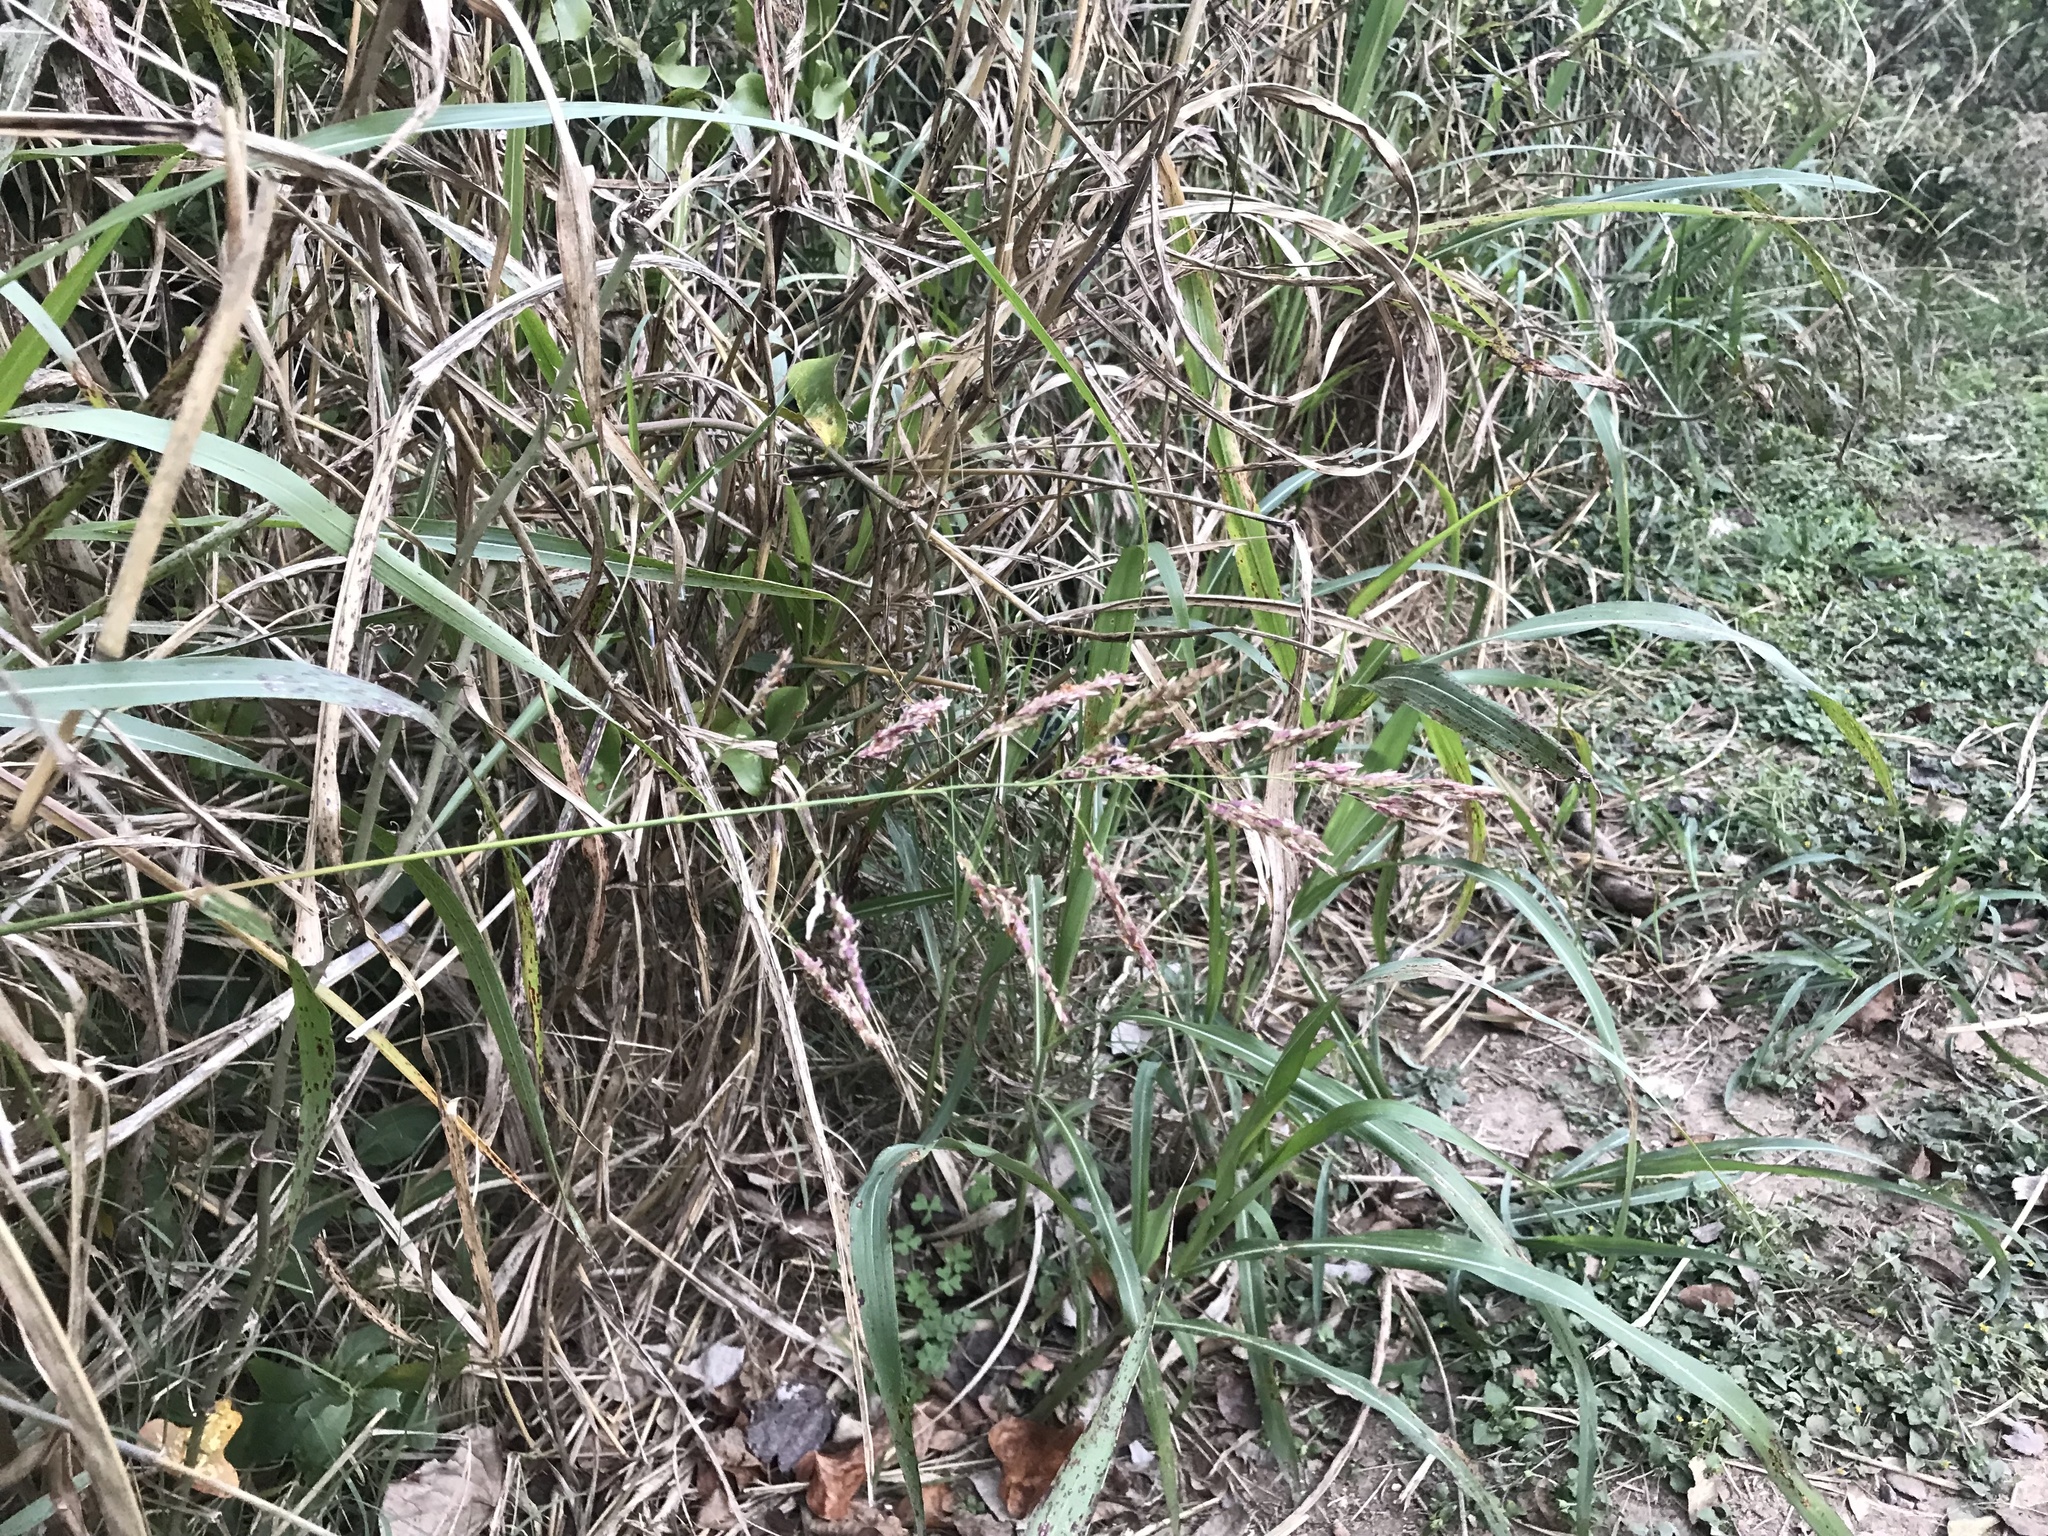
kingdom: Plantae
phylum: Tracheophyta
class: Liliopsida
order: Poales
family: Poaceae
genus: Sorghum
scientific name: Sorghum halepense
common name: Johnson-grass
